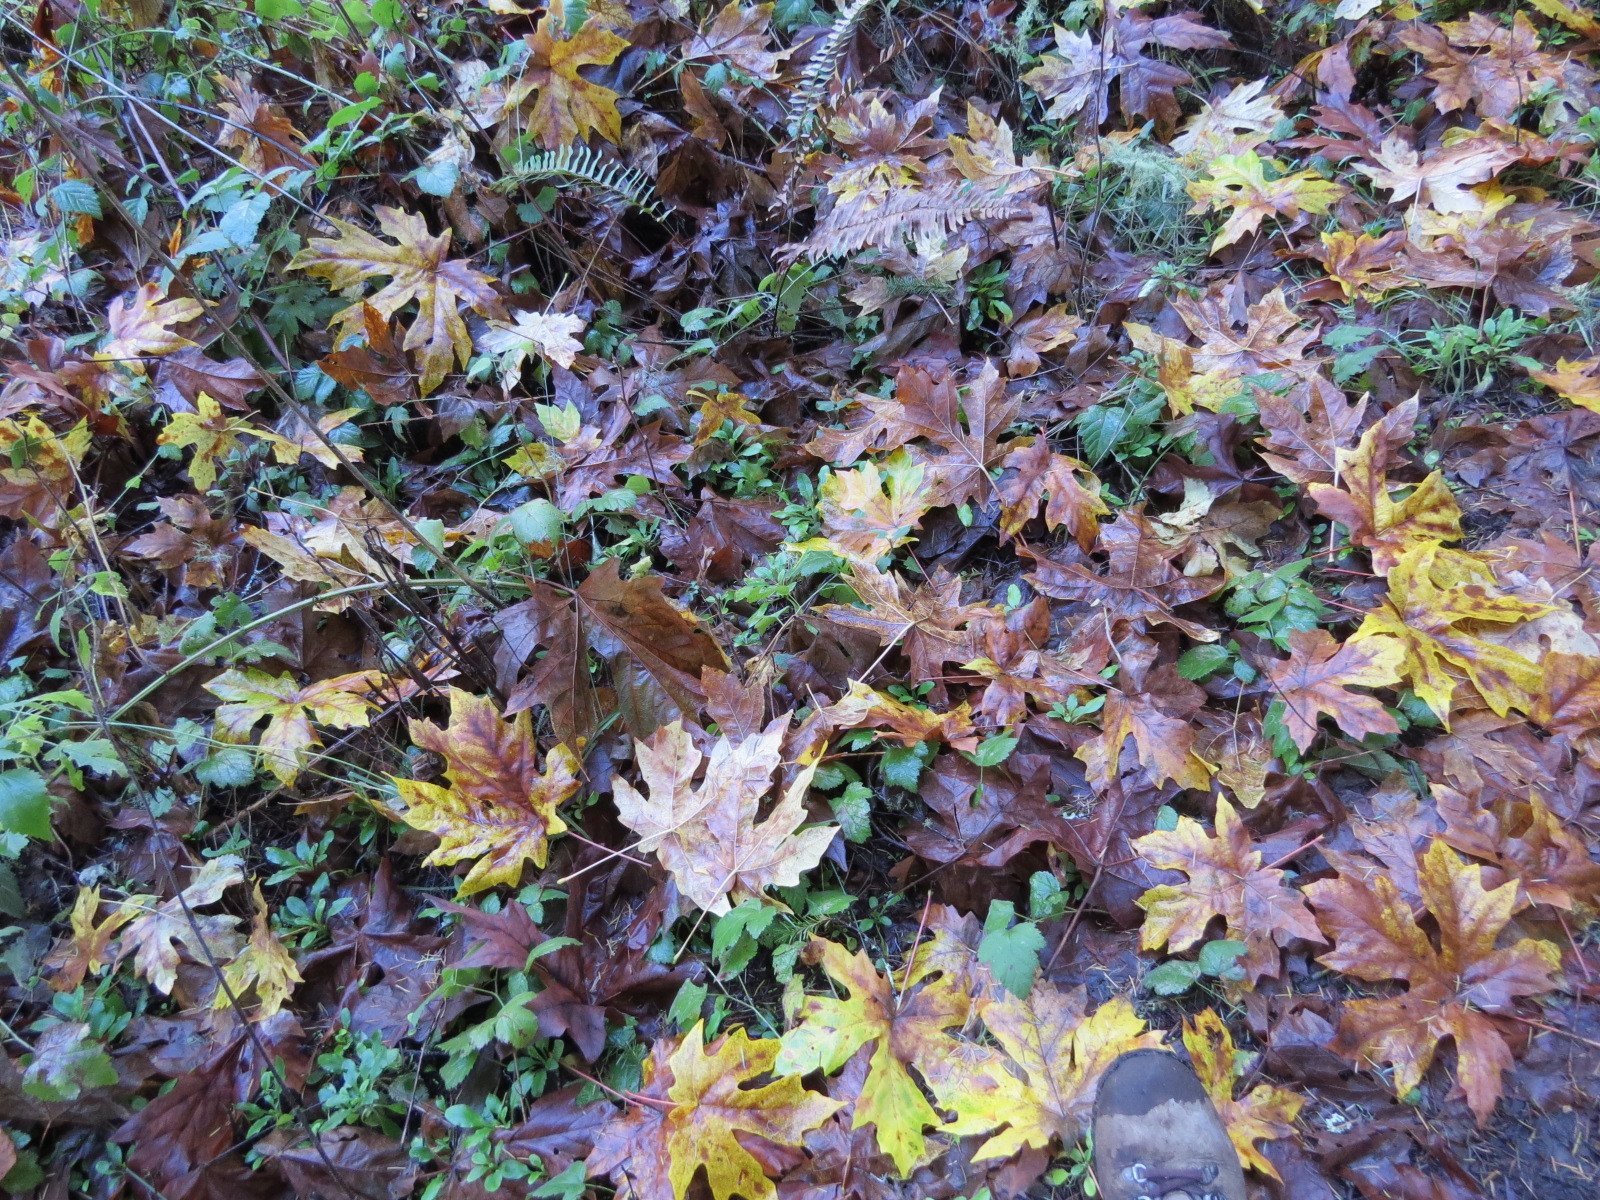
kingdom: Plantae
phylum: Tracheophyta
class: Magnoliopsida
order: Sapindales
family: Sapindaceae
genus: Acer
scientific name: Acer macrophyllum
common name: Oregon maple
